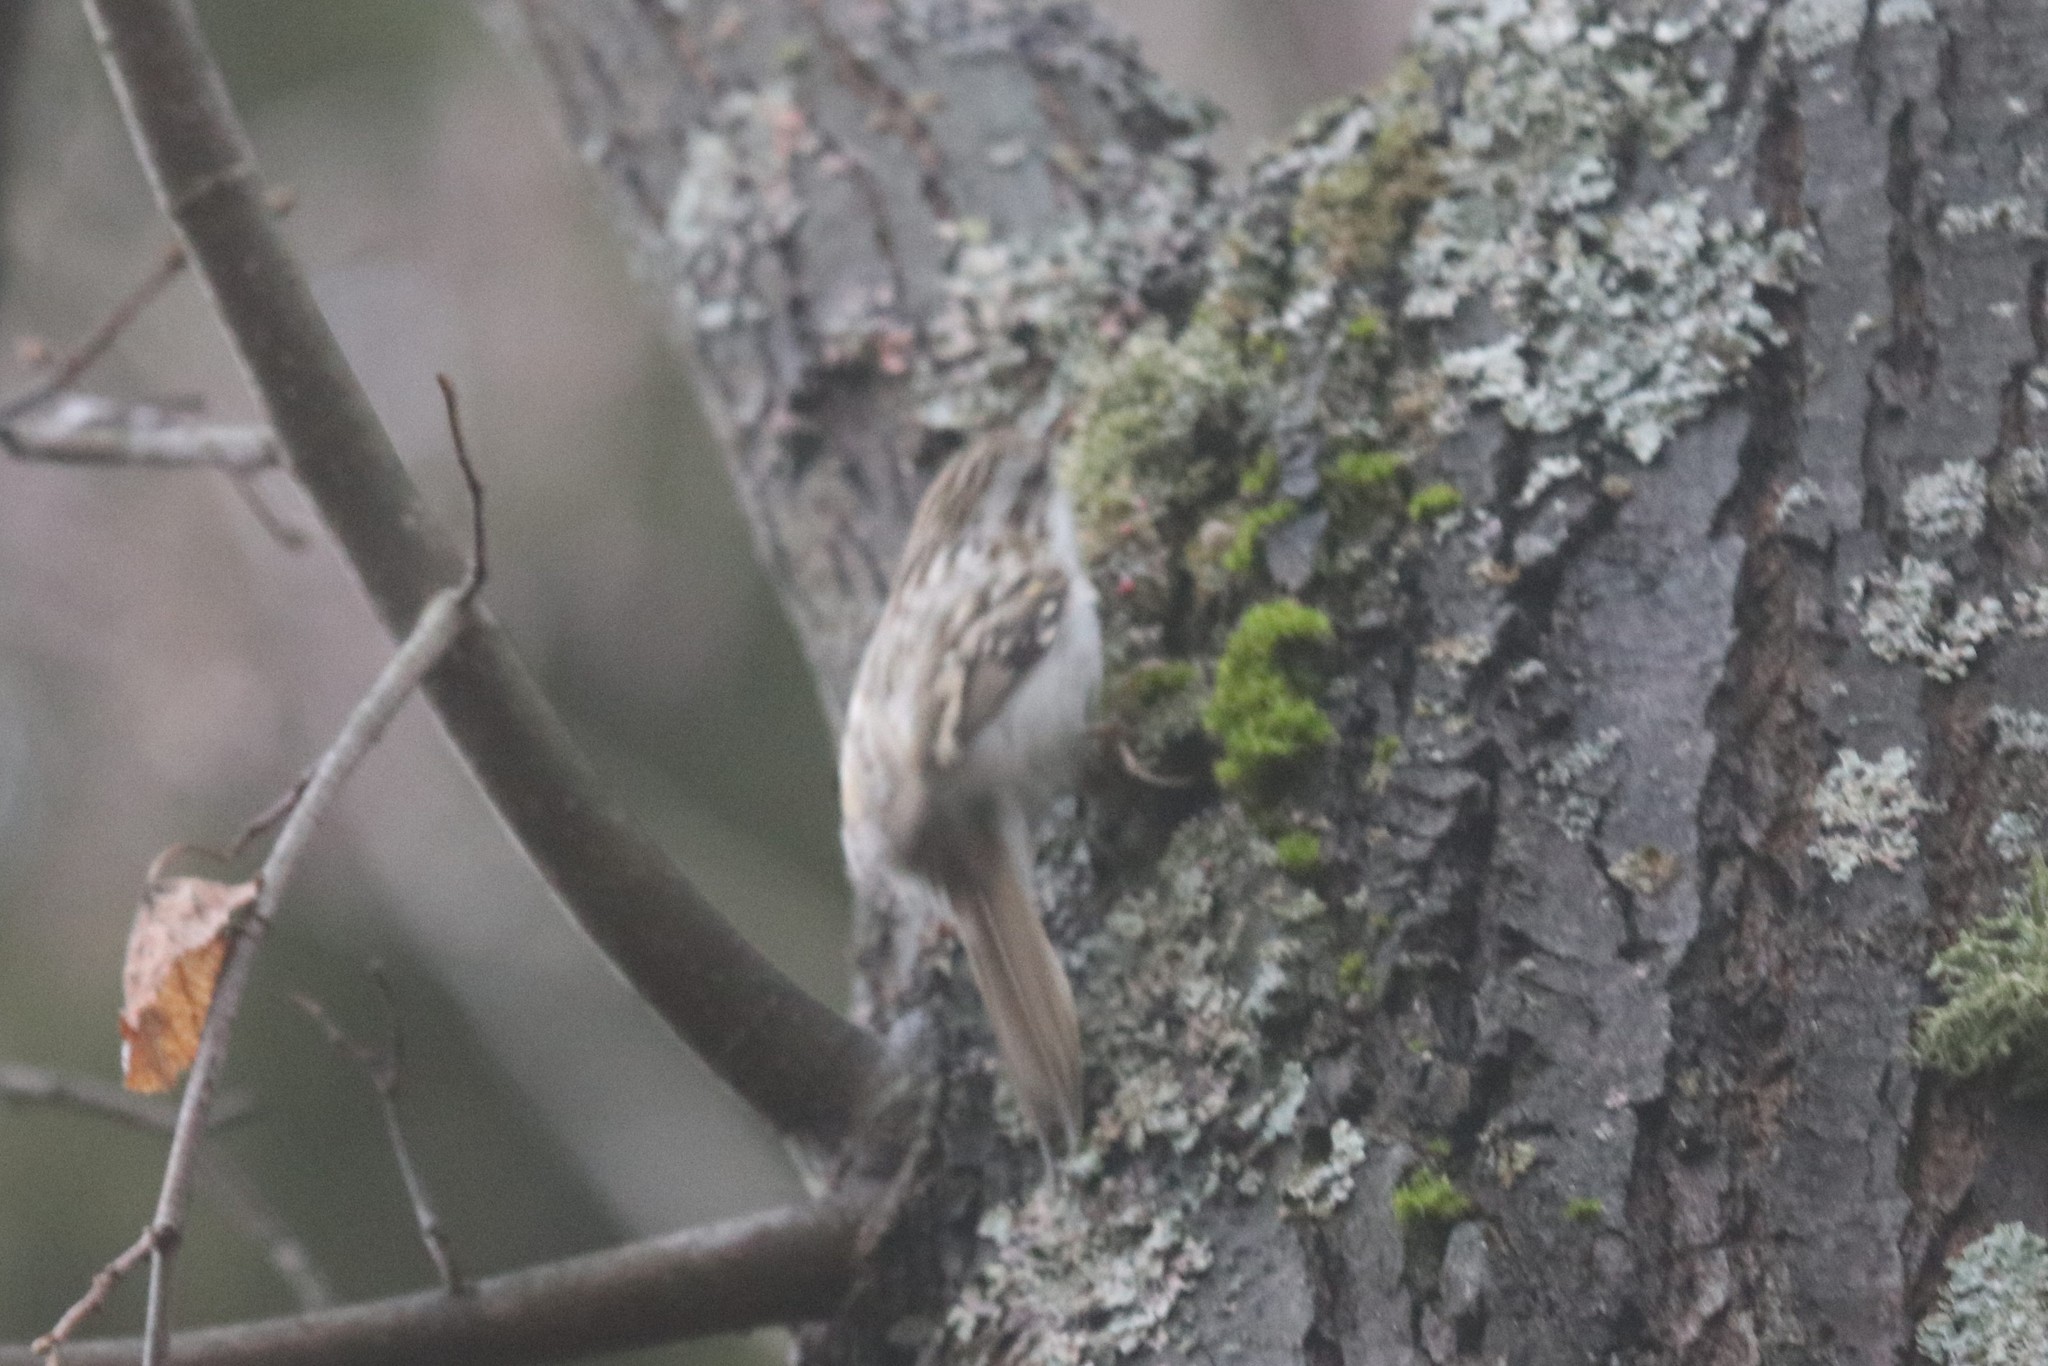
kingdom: Animalia
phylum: Chordata
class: Aves
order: Passeriformes
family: Certhiidae
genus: Certhia
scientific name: Certhia familiaris
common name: Eurasian treecreeper
